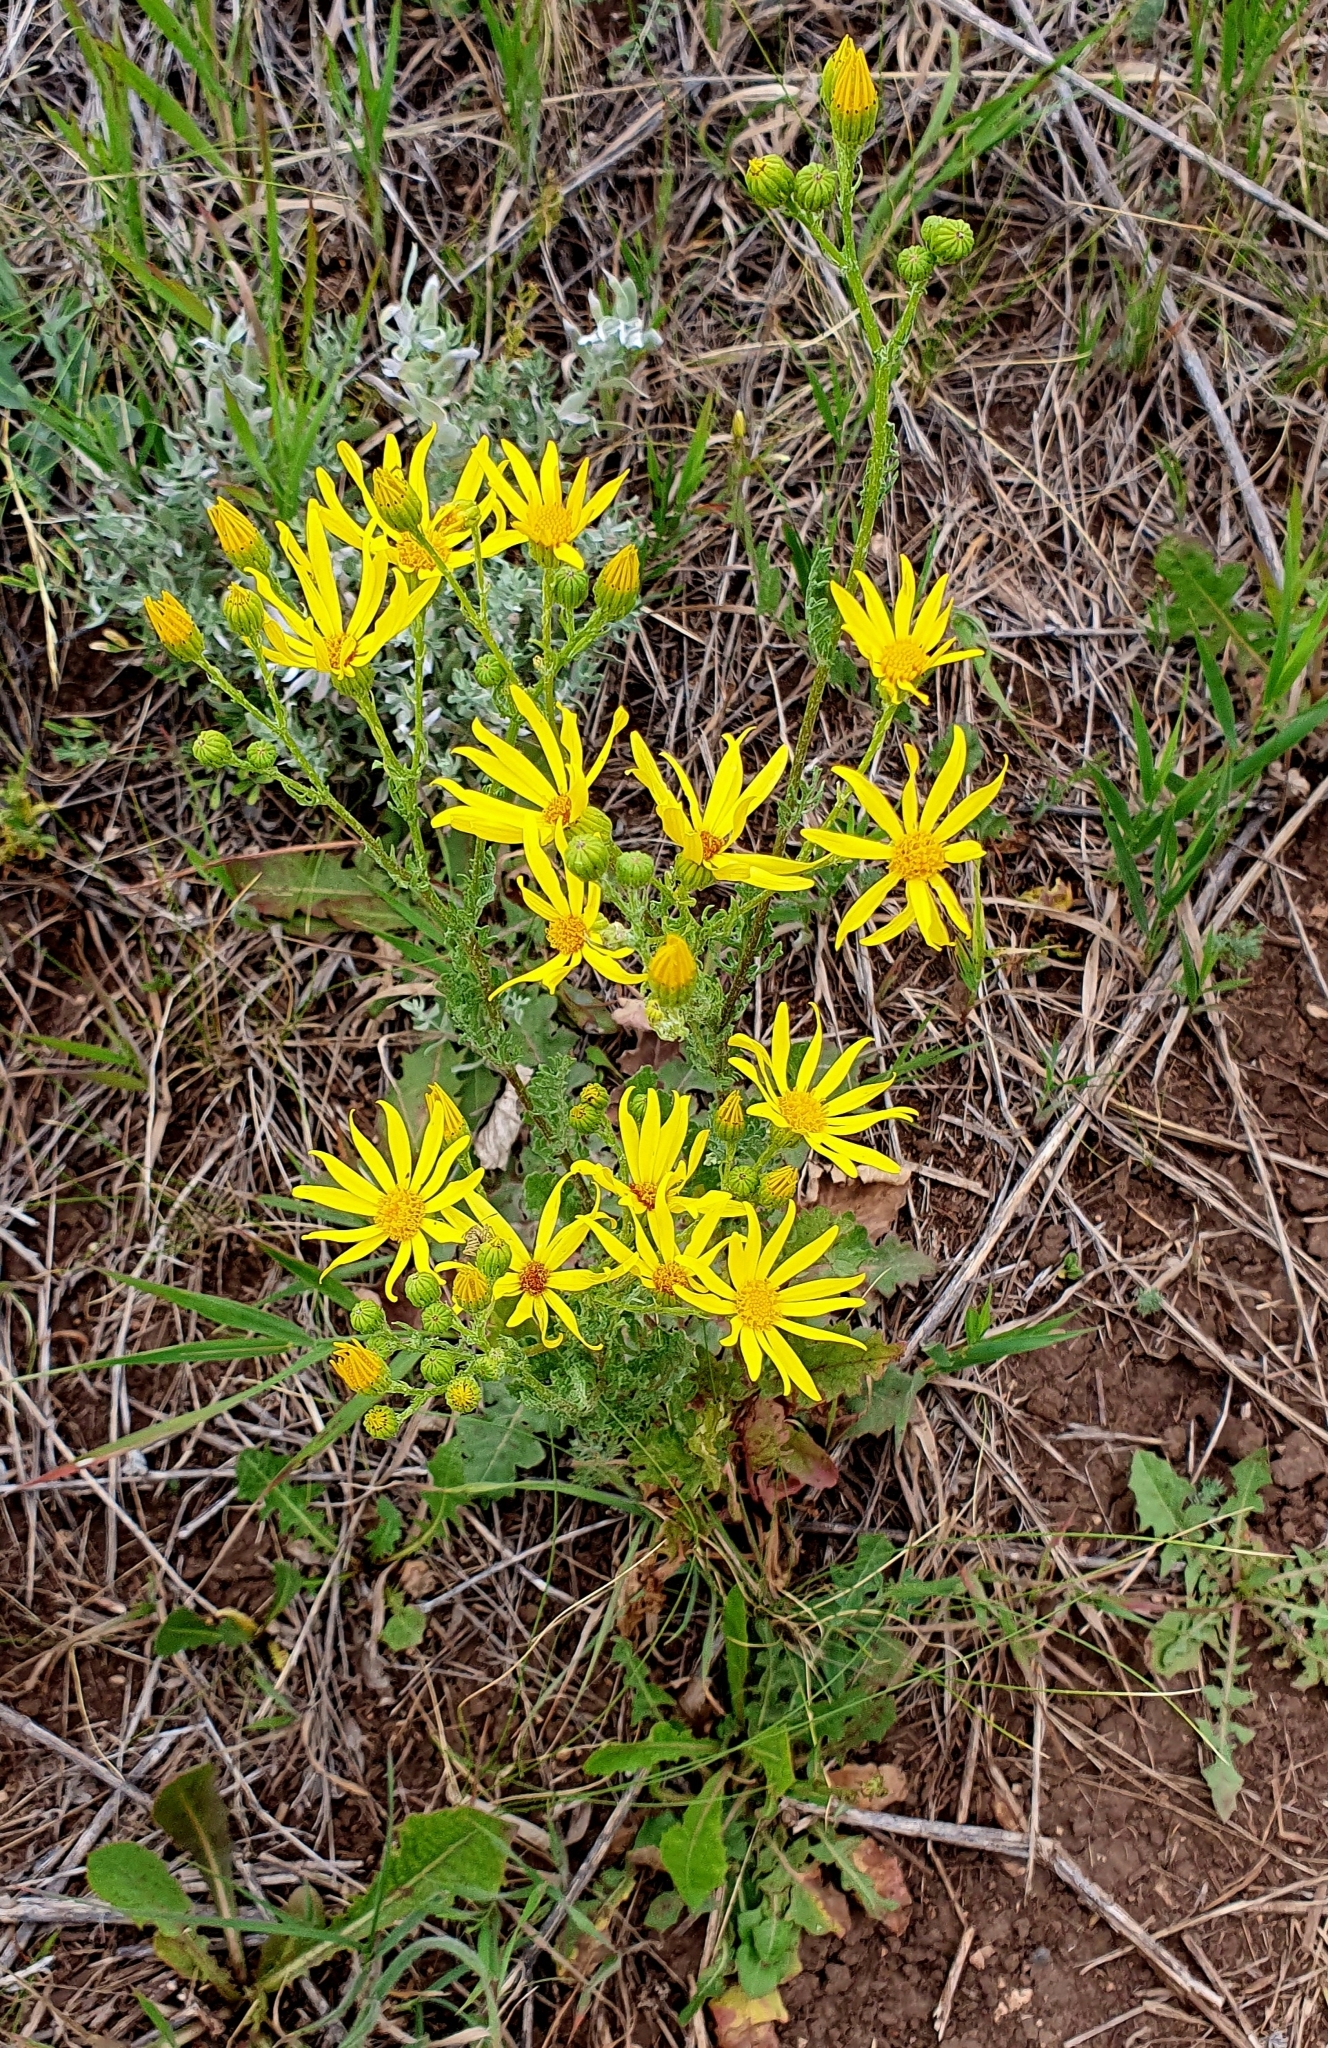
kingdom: Plantae
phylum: Tracheophyta
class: Magnoliopsida
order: Asterales
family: Asteraceae
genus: Jacobaea
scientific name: Jacobaea vulgaris
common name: Stinking willie
